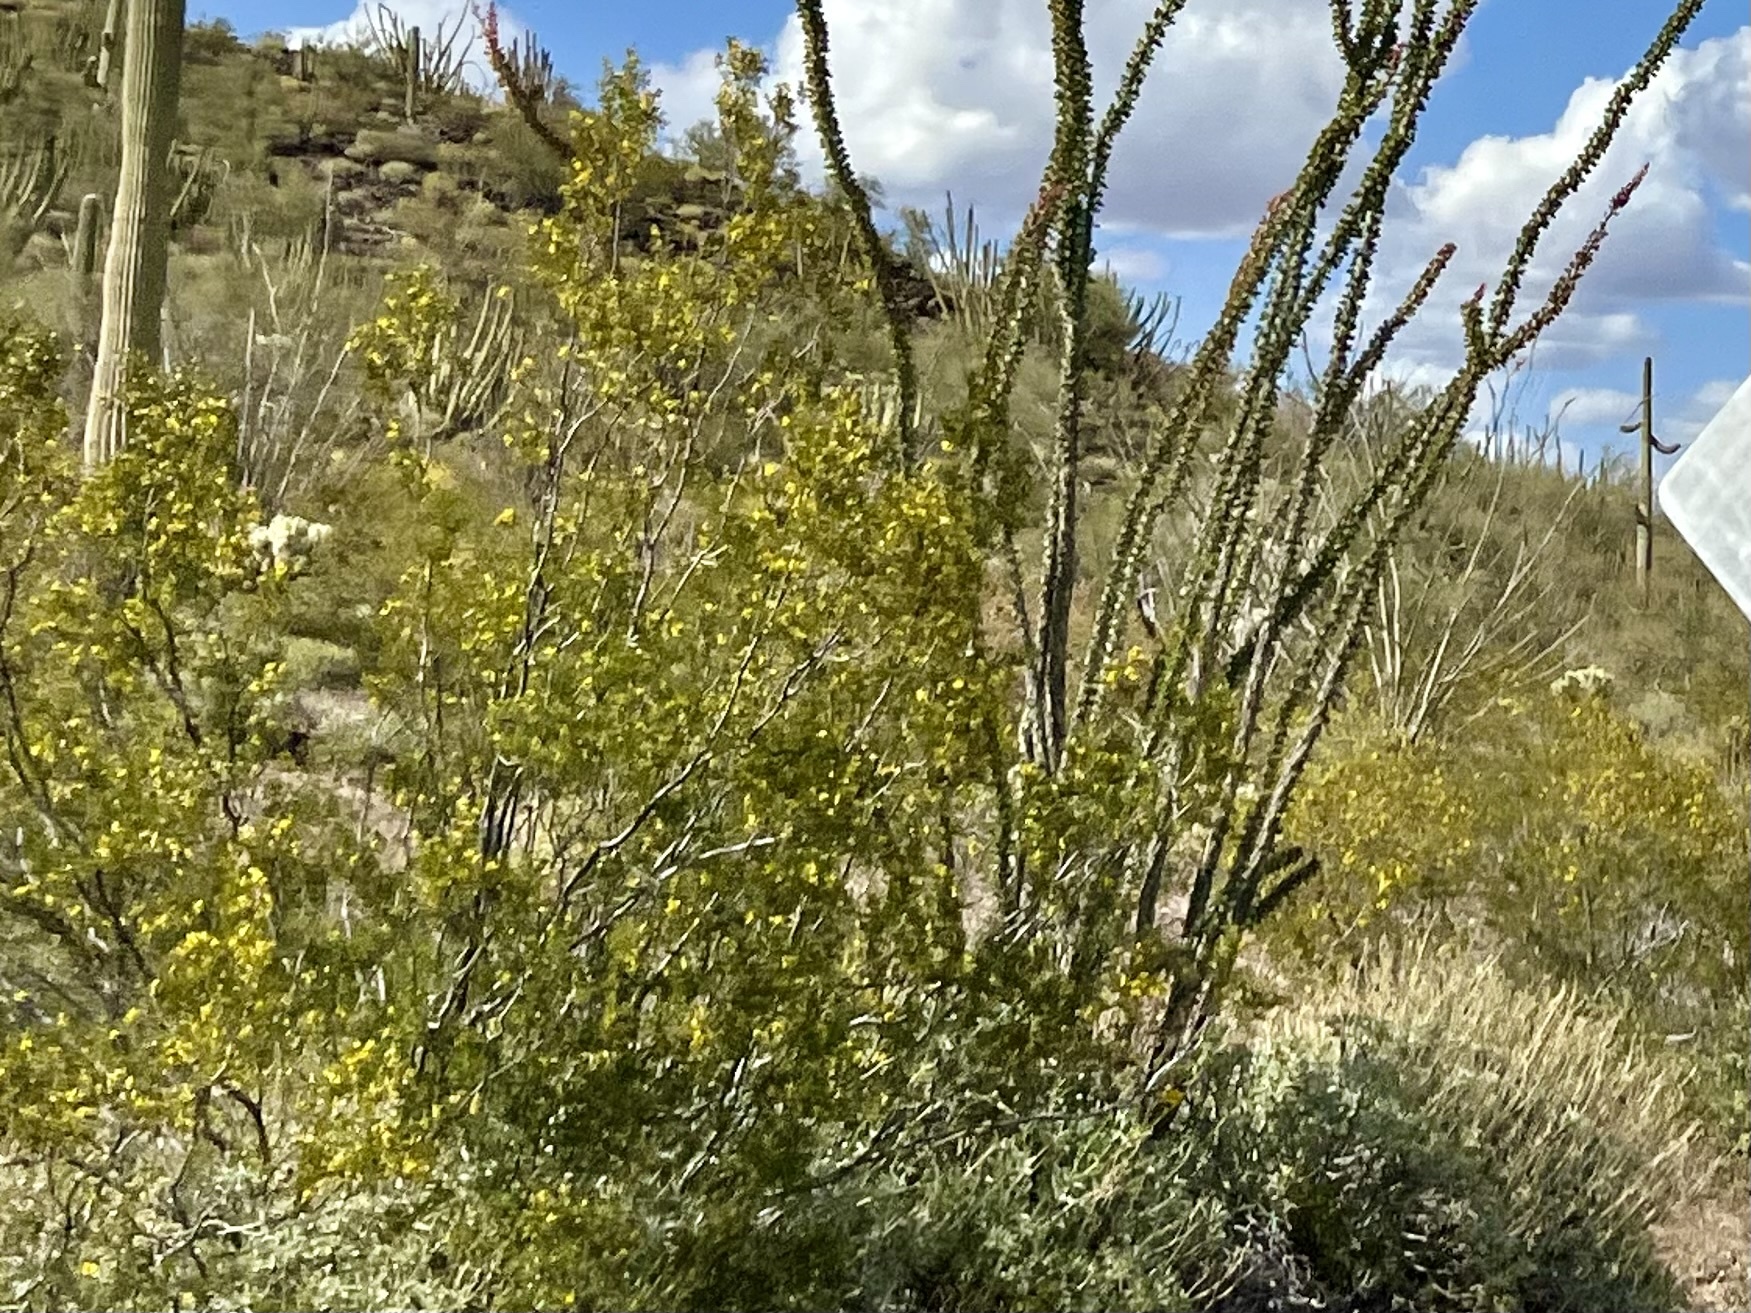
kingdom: Plantae
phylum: Tracheophyta
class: Magnoliopsida
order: Zygophyllales
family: Zygophyllaceae
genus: Larrea
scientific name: Larrea tridentata
